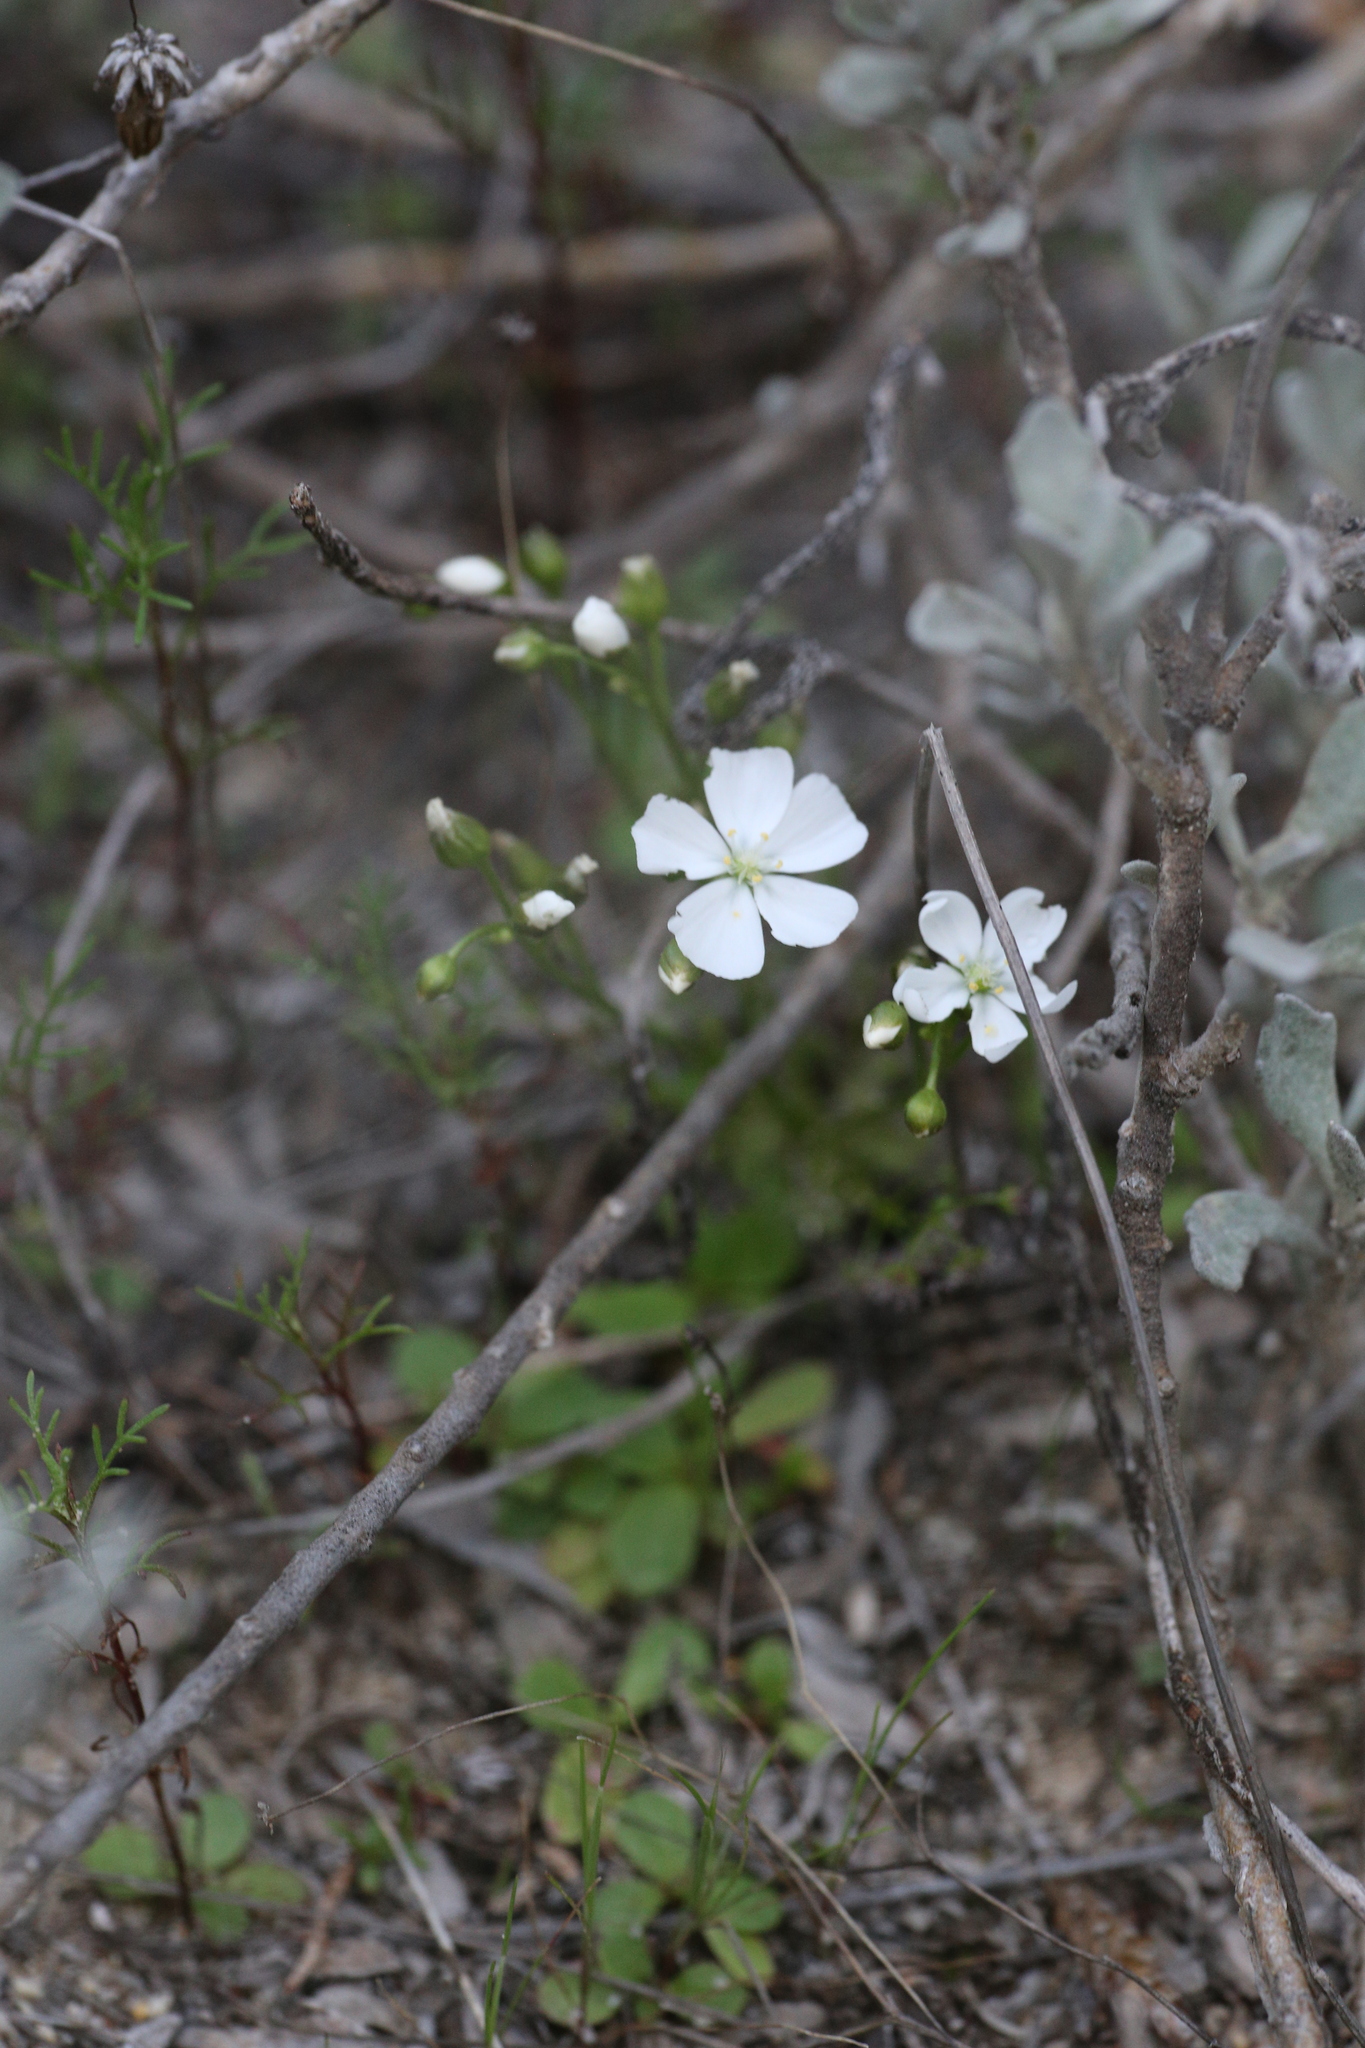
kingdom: Plantae
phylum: Tracheophyta
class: Magnoliopsida
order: Caryophyllales
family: Droseraceae
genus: Drosera
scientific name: Drosera stolonifera
